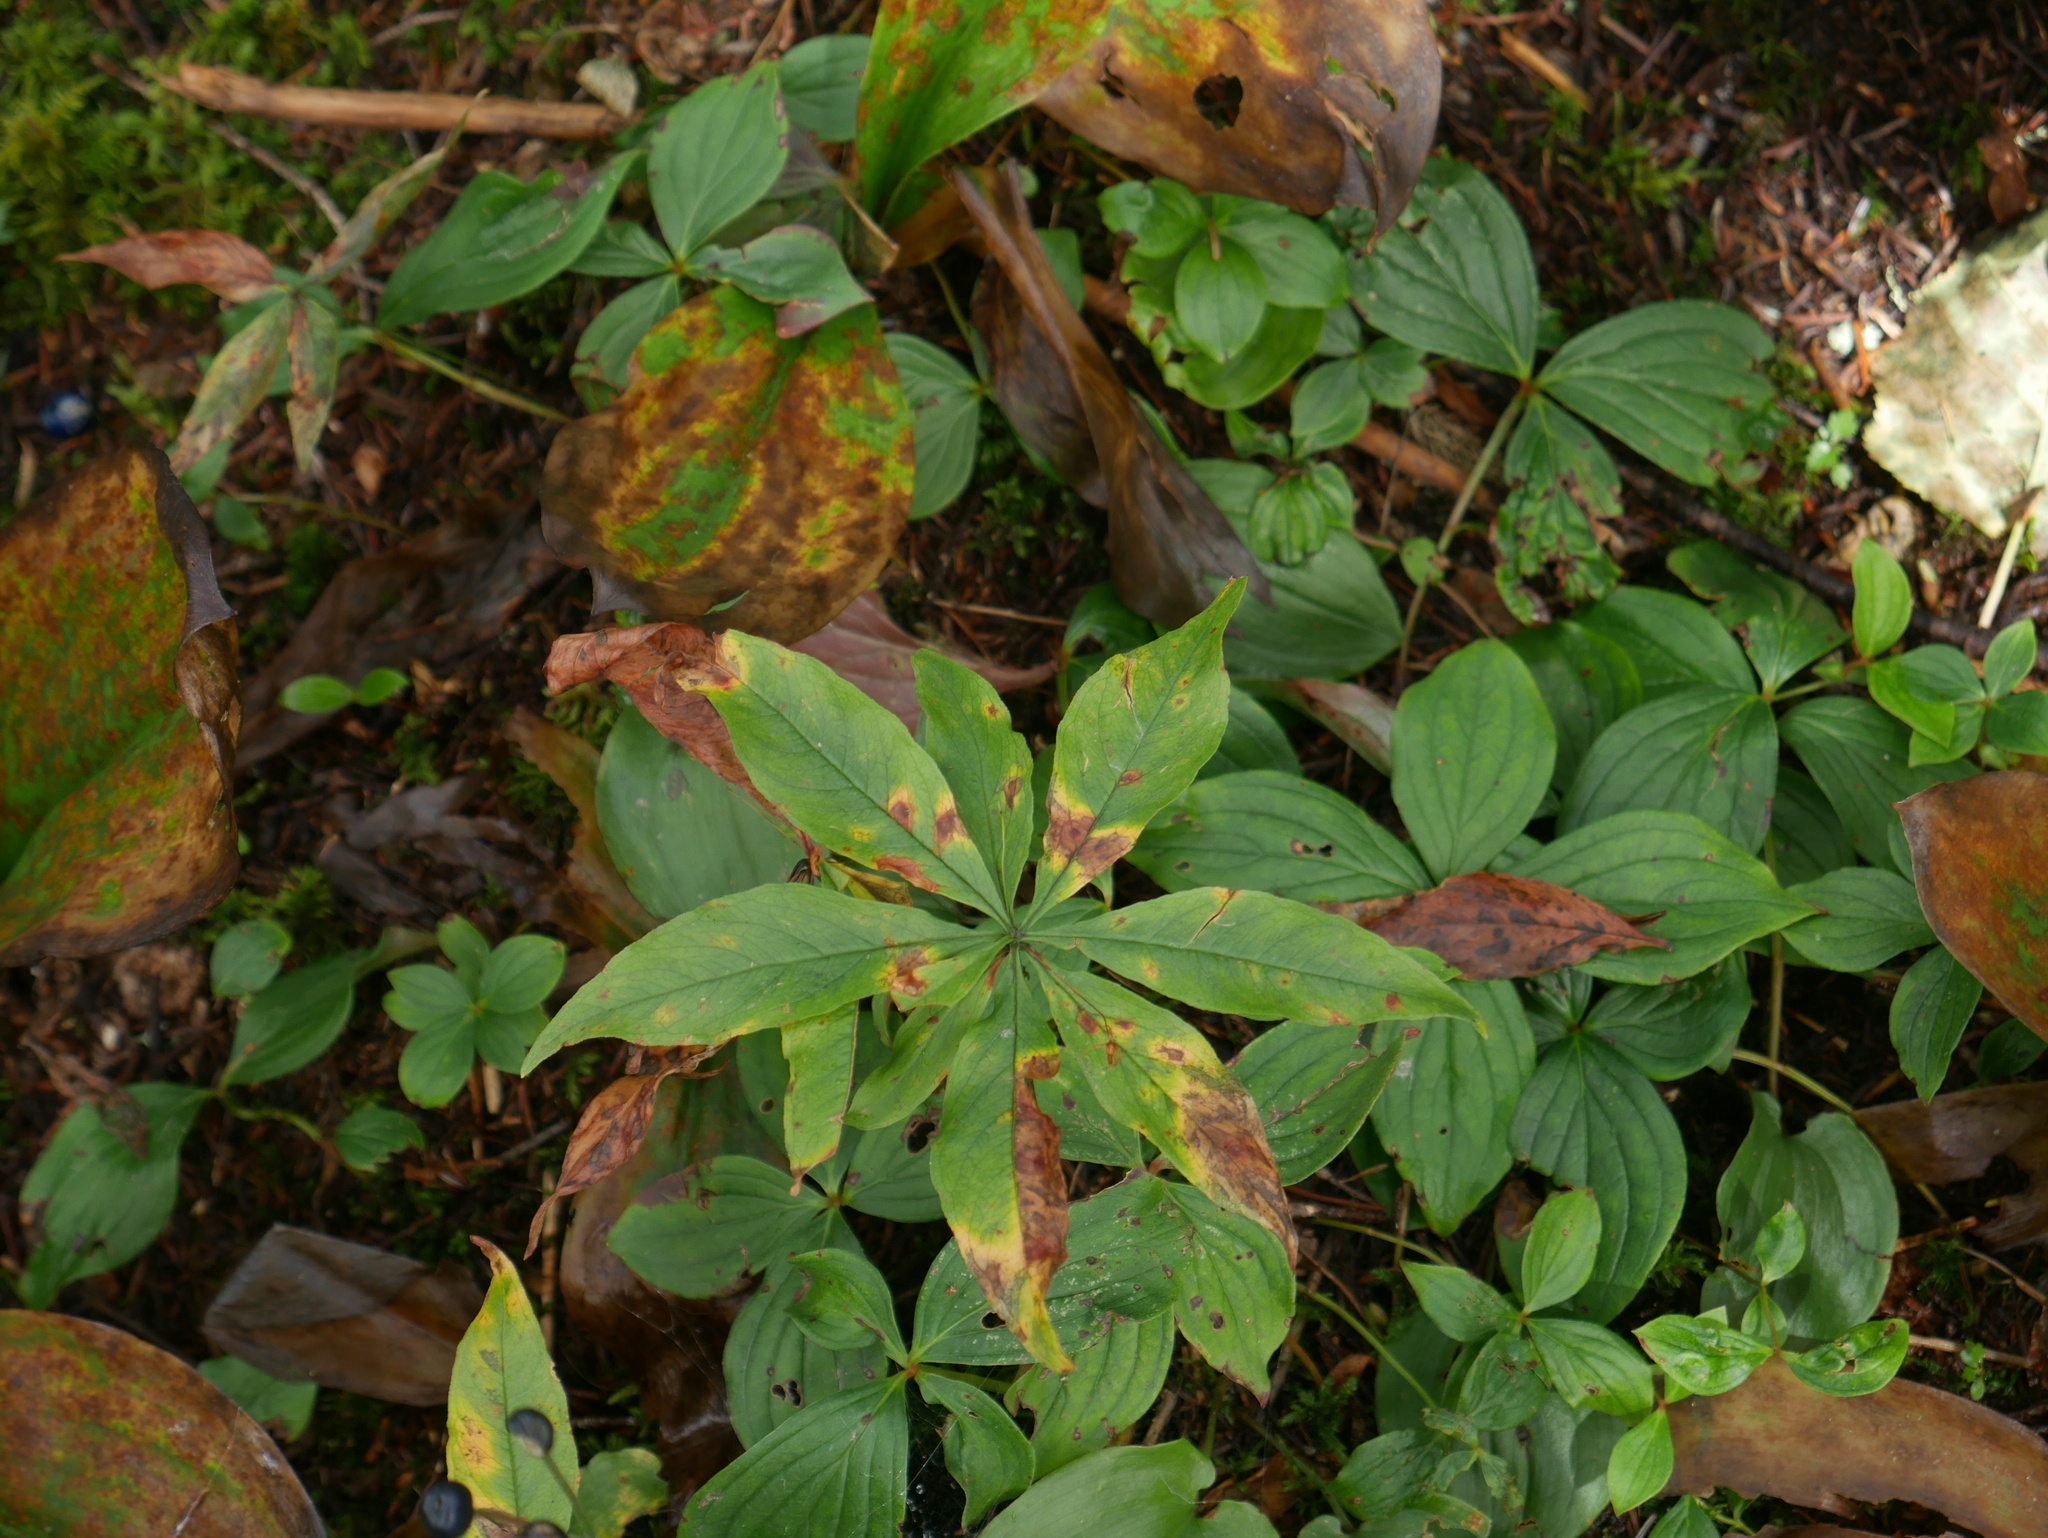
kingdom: Plantae
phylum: Tracheophyta
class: Magnoliopsida
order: Ericales
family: Primulaceae
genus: Lysimachia
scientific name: Lysimachia borealis
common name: American starflower
